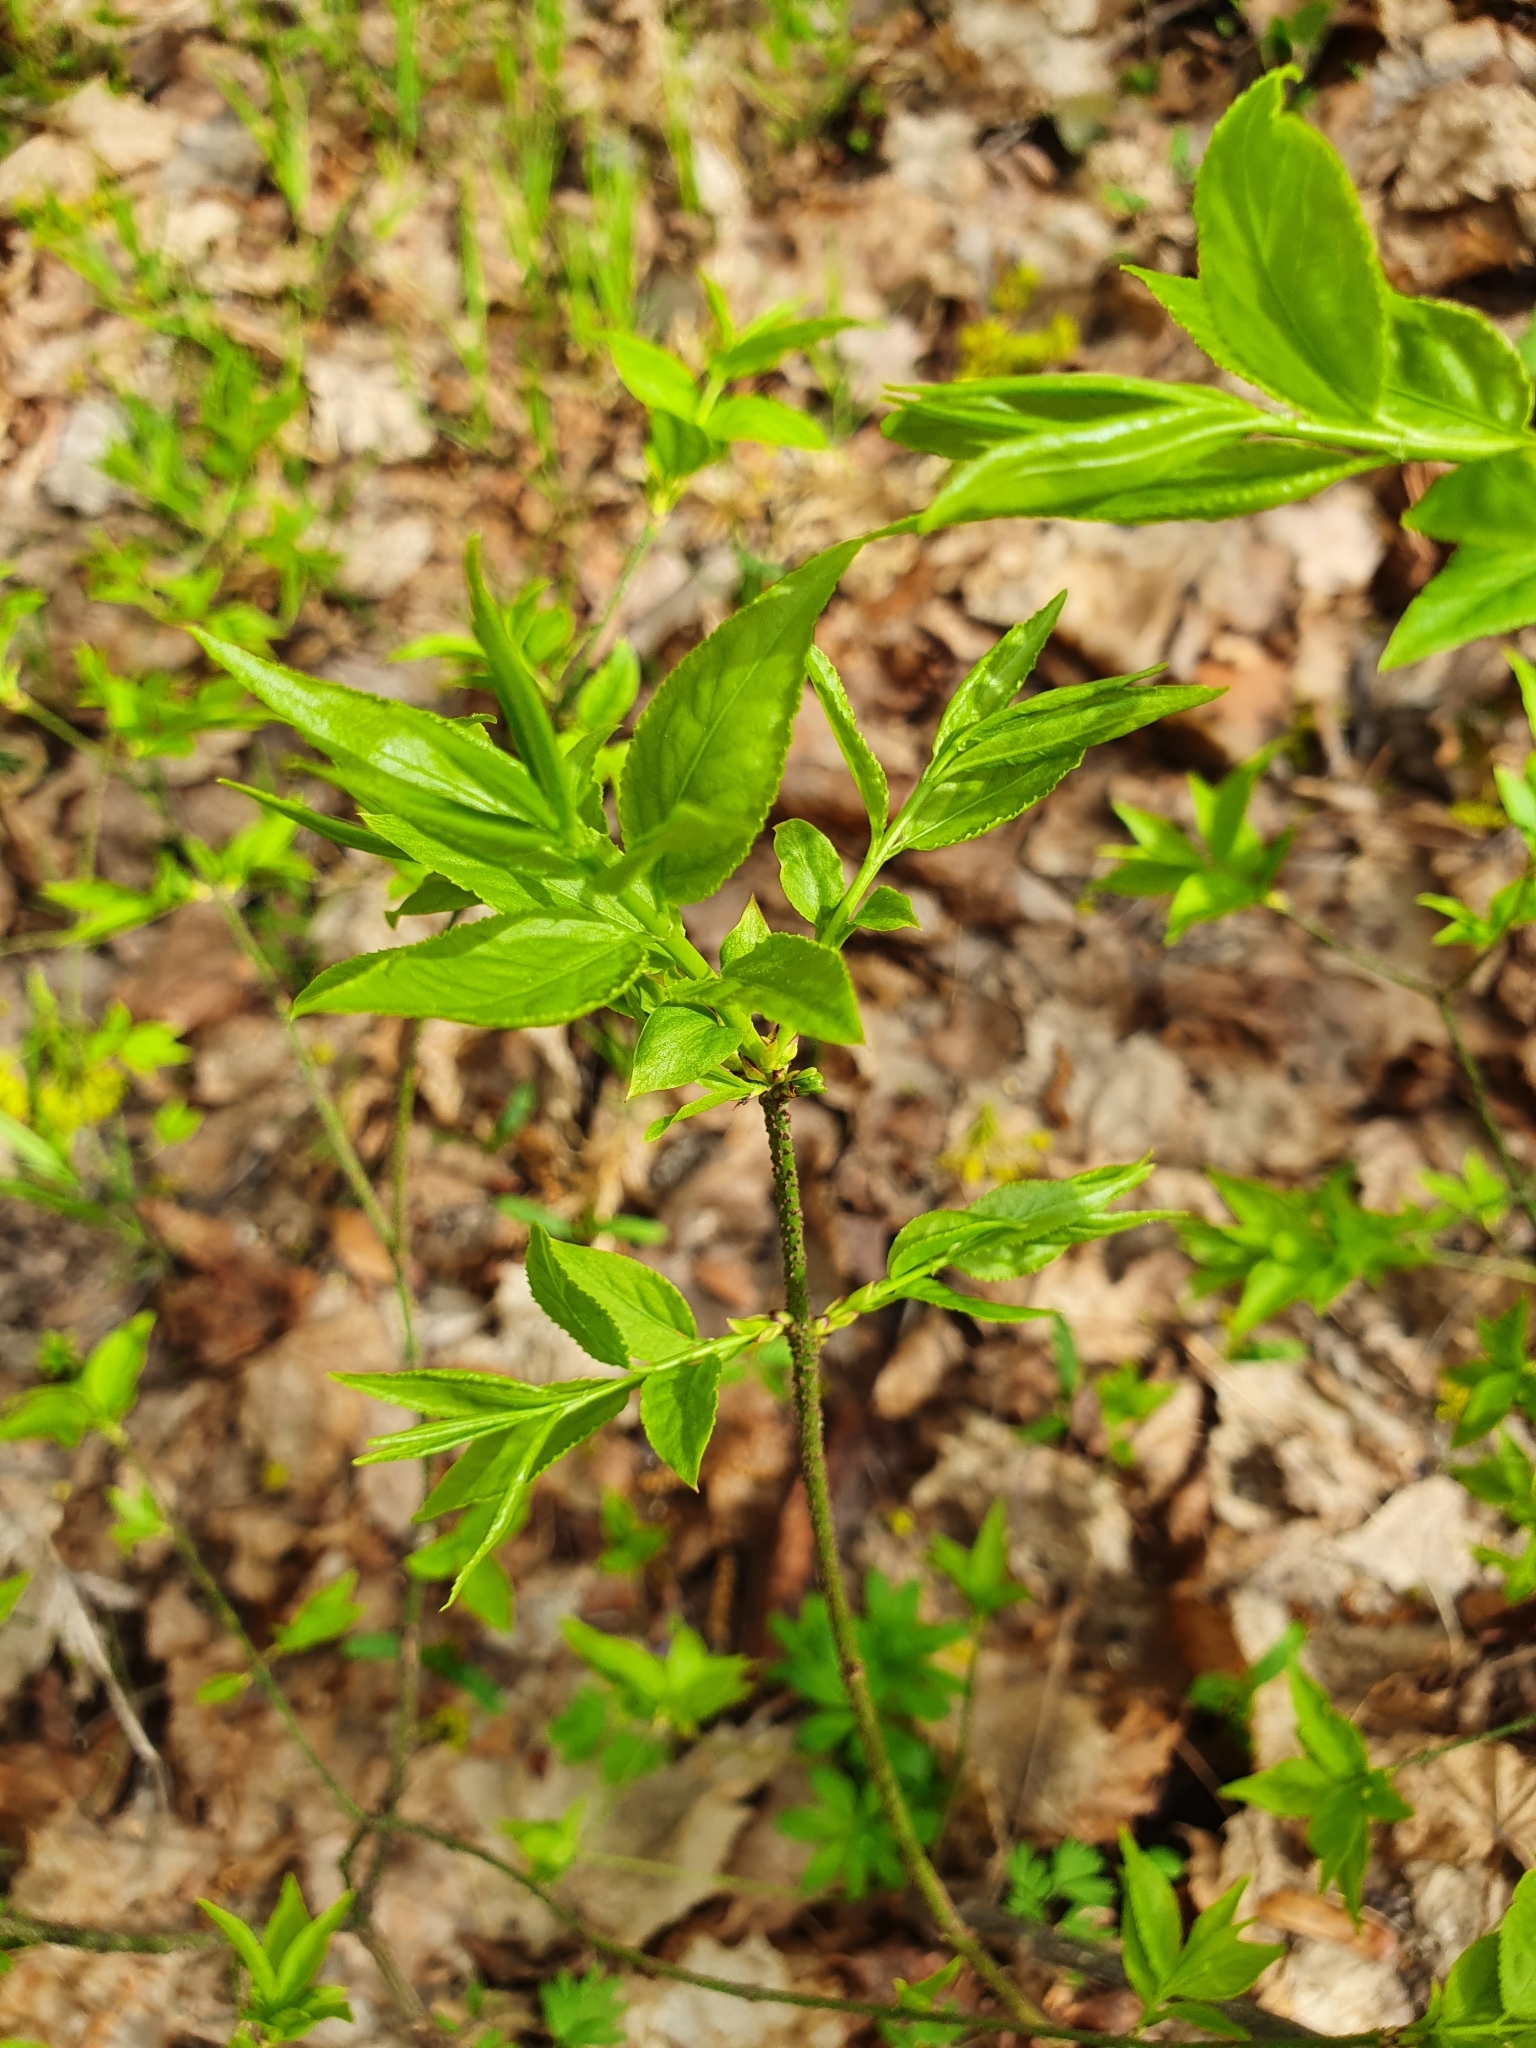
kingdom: Plantae
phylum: Tracheophyta
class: Magnoliopsida
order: Celastrales
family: Celastraceae
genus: Euonymus
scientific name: Euonymus verrucosus
